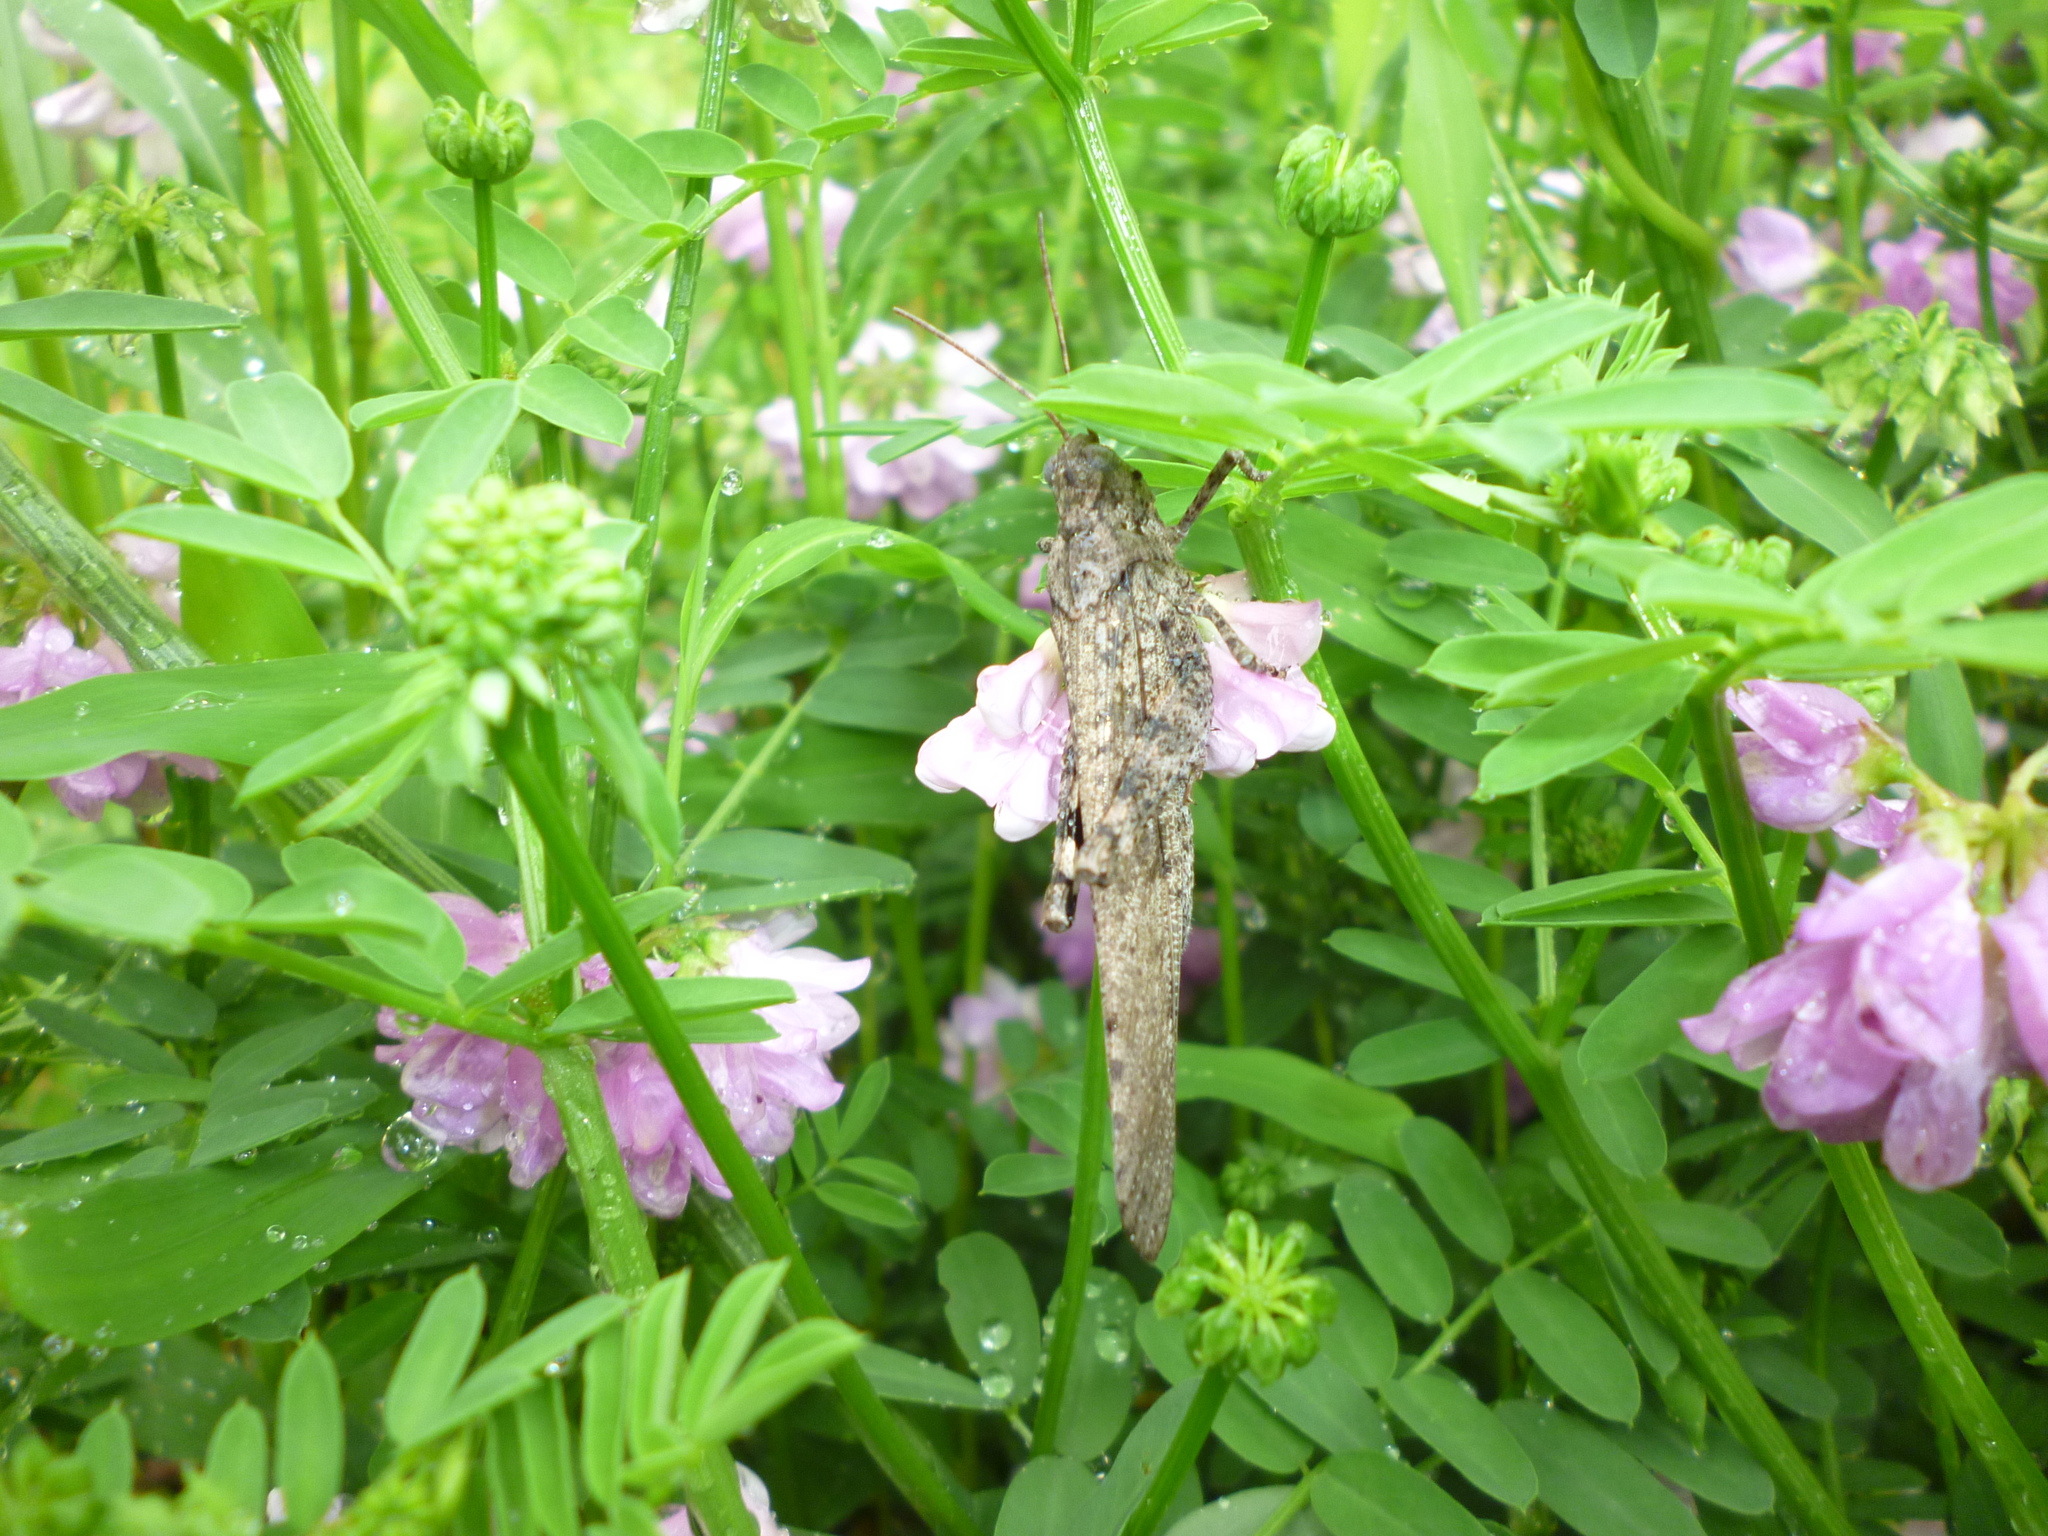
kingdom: Plantae
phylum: Tracheophyta
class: Magnoliopsida
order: Fabales
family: Fabaceae
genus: Coronilla
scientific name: Coronilla varia
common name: Crownvetch
